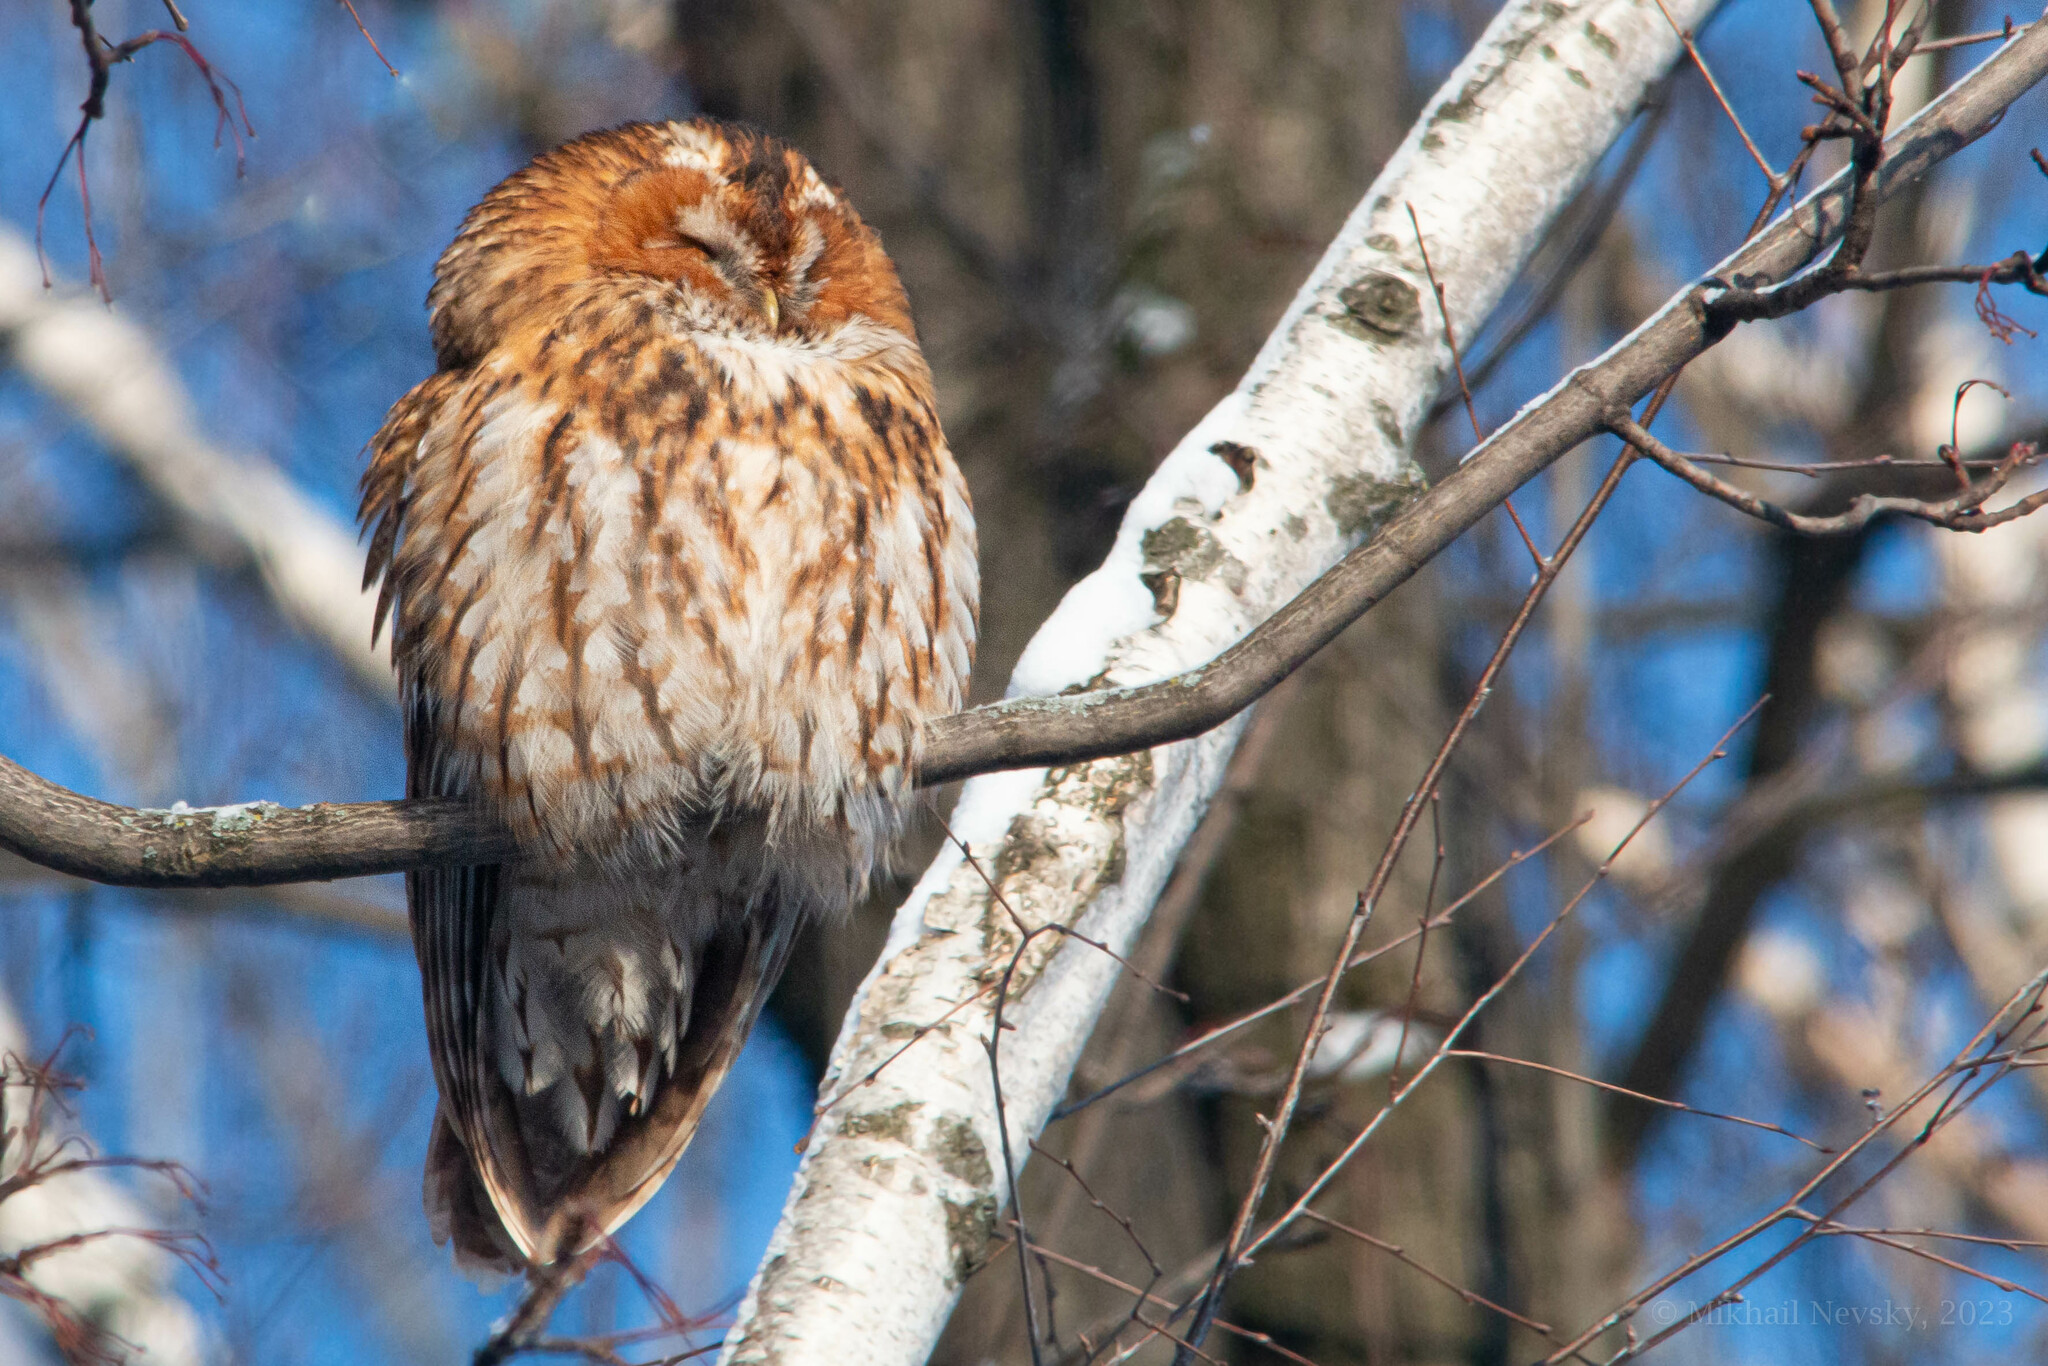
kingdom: Animalia
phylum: Chordata
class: Aves
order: Strigiformes
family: Strigidae
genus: Strix
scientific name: Strix aluco
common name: Tawny owl
